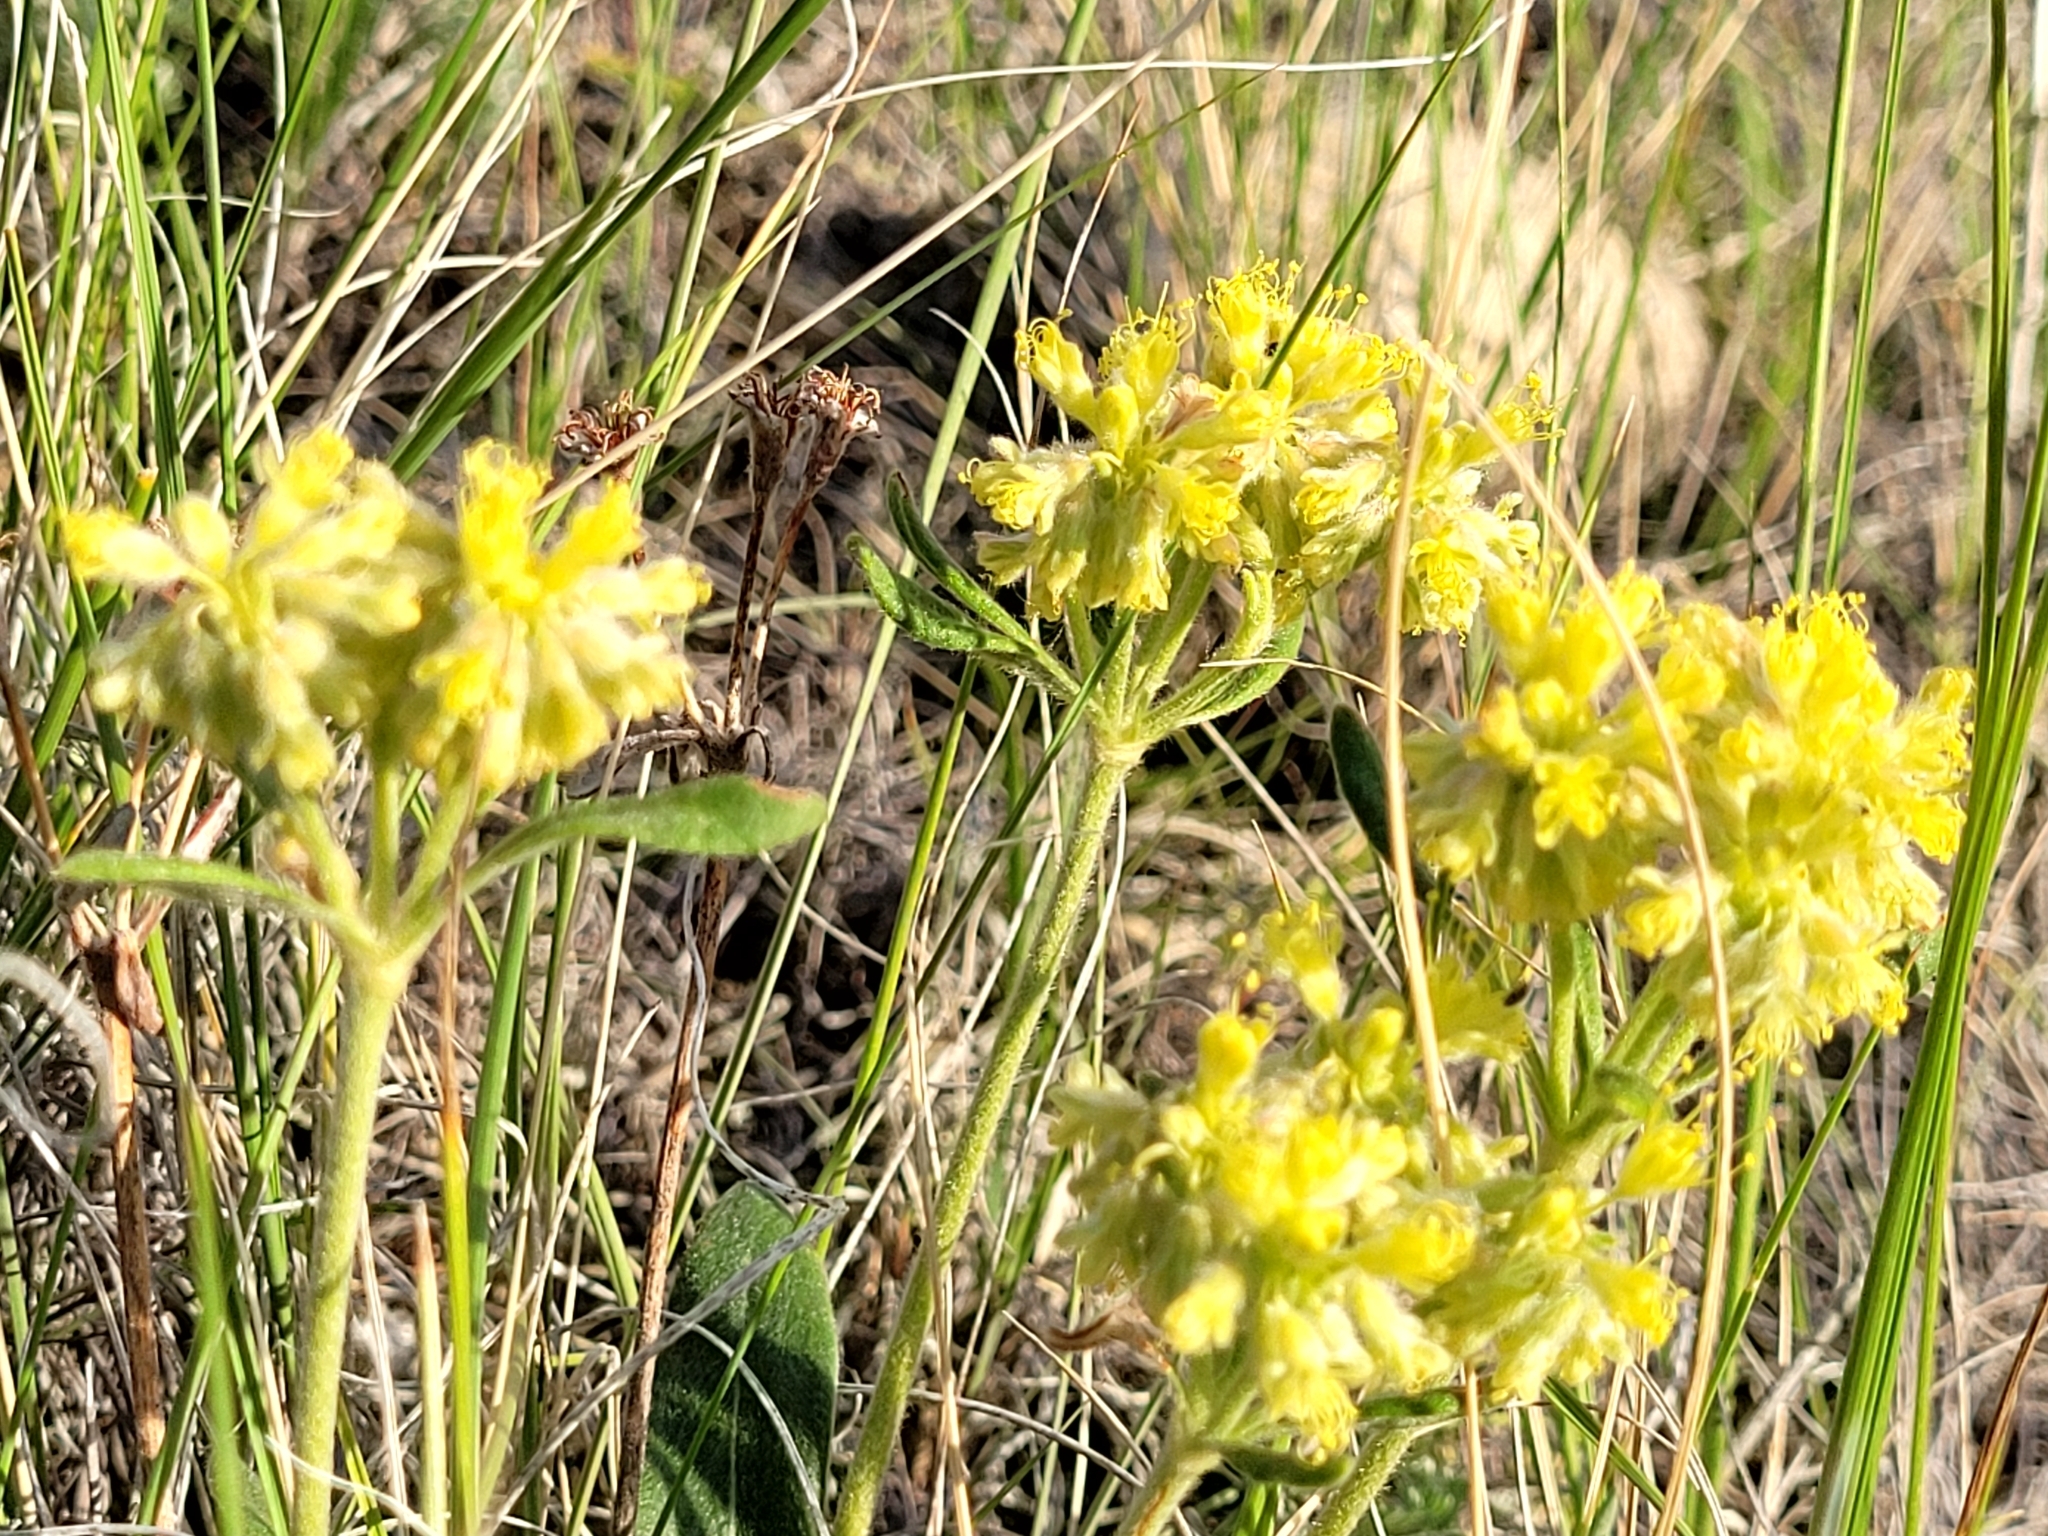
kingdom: Plantae
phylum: Tracheophyta
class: Magnoliopsida
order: Caryophyllales
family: Polygonaceae
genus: Eriogonum
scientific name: Eriogonum flavum
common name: Alpine golden wild buckwheat
